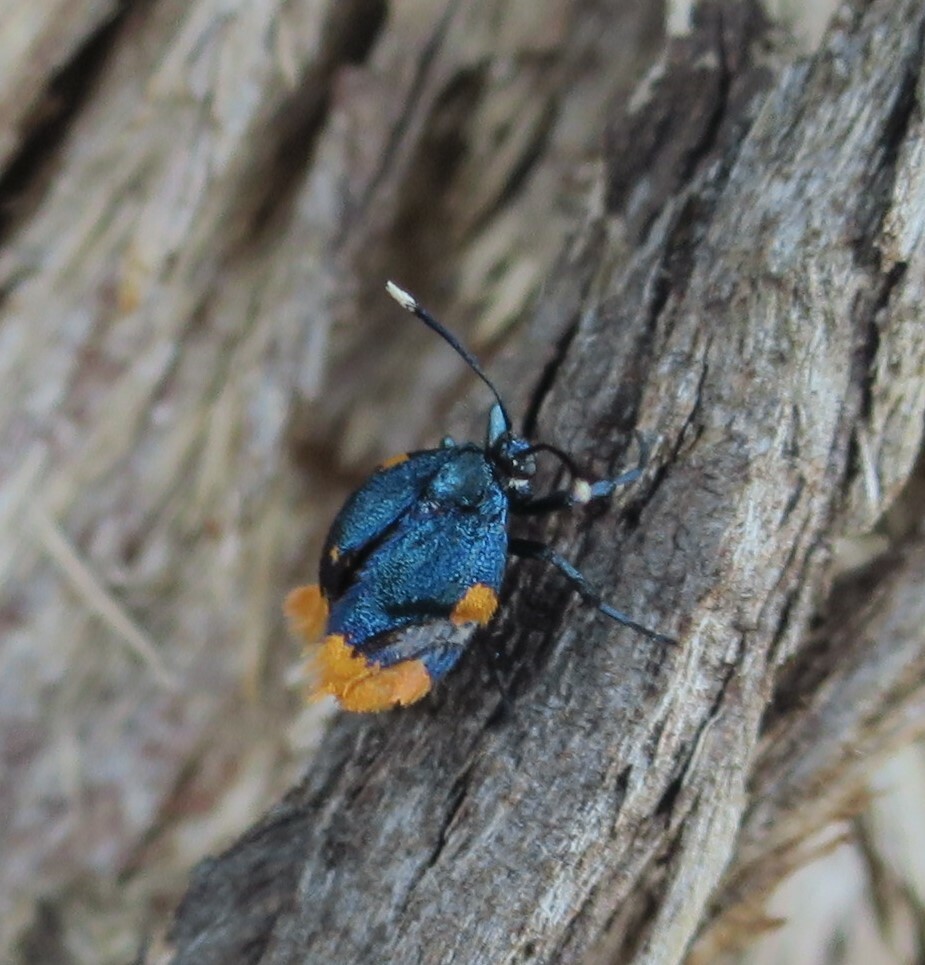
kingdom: Animalia
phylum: Arthropoda
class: Insecta
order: Lepidoptera
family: Psychidae
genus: Cebysa
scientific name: Cebysa leucotelus
